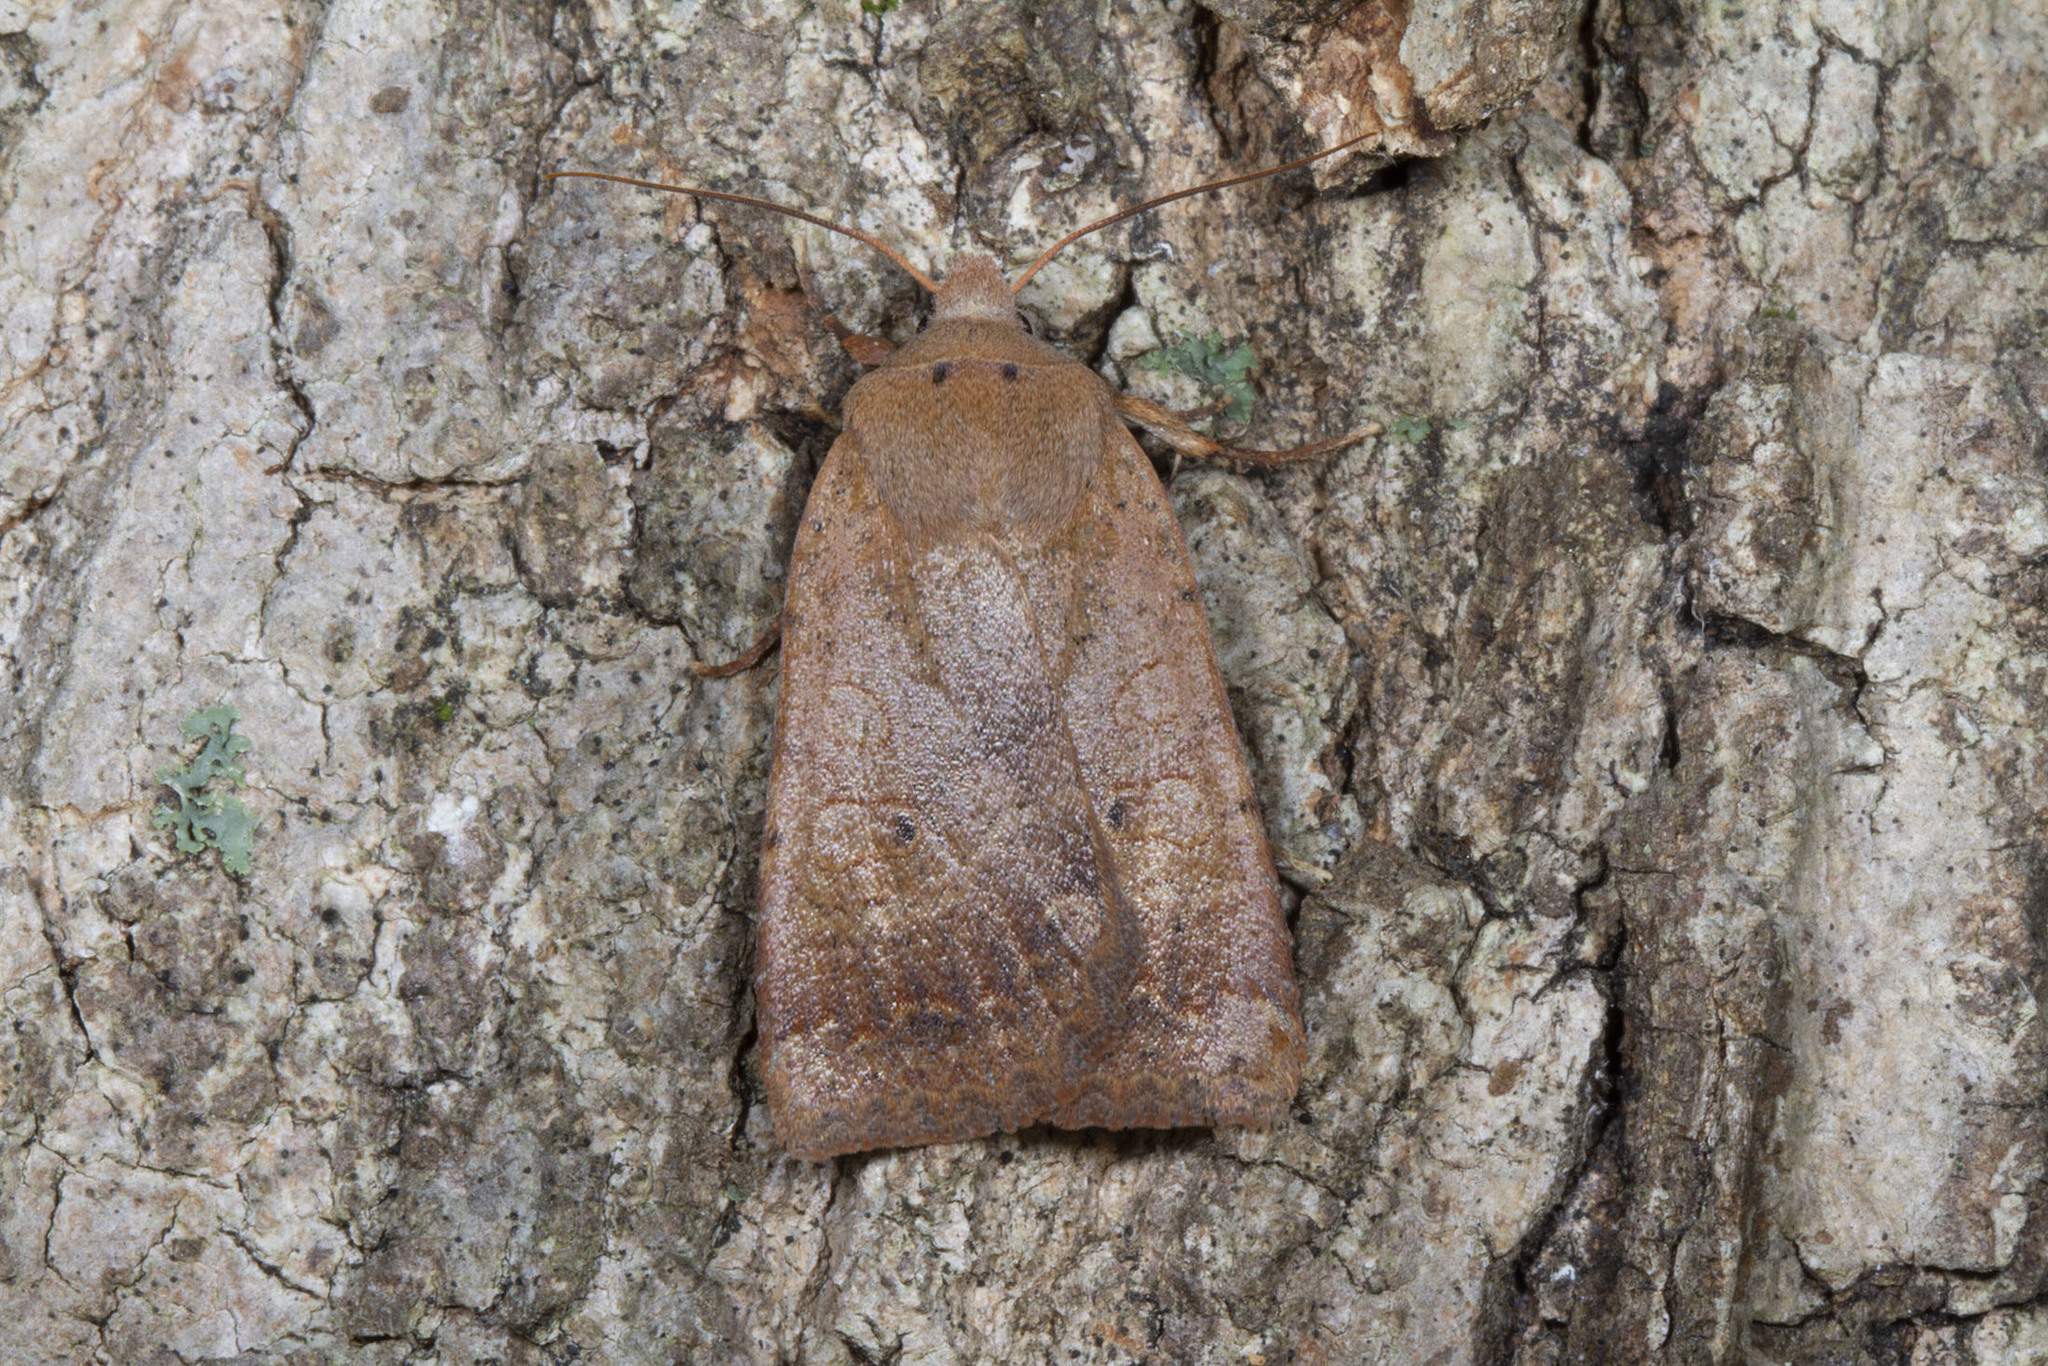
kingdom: Animalia
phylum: Arthropoda
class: Insecta
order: Lepidoptera
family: Noctuidae
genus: Sericaglaea
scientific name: Sericaglaea signata
